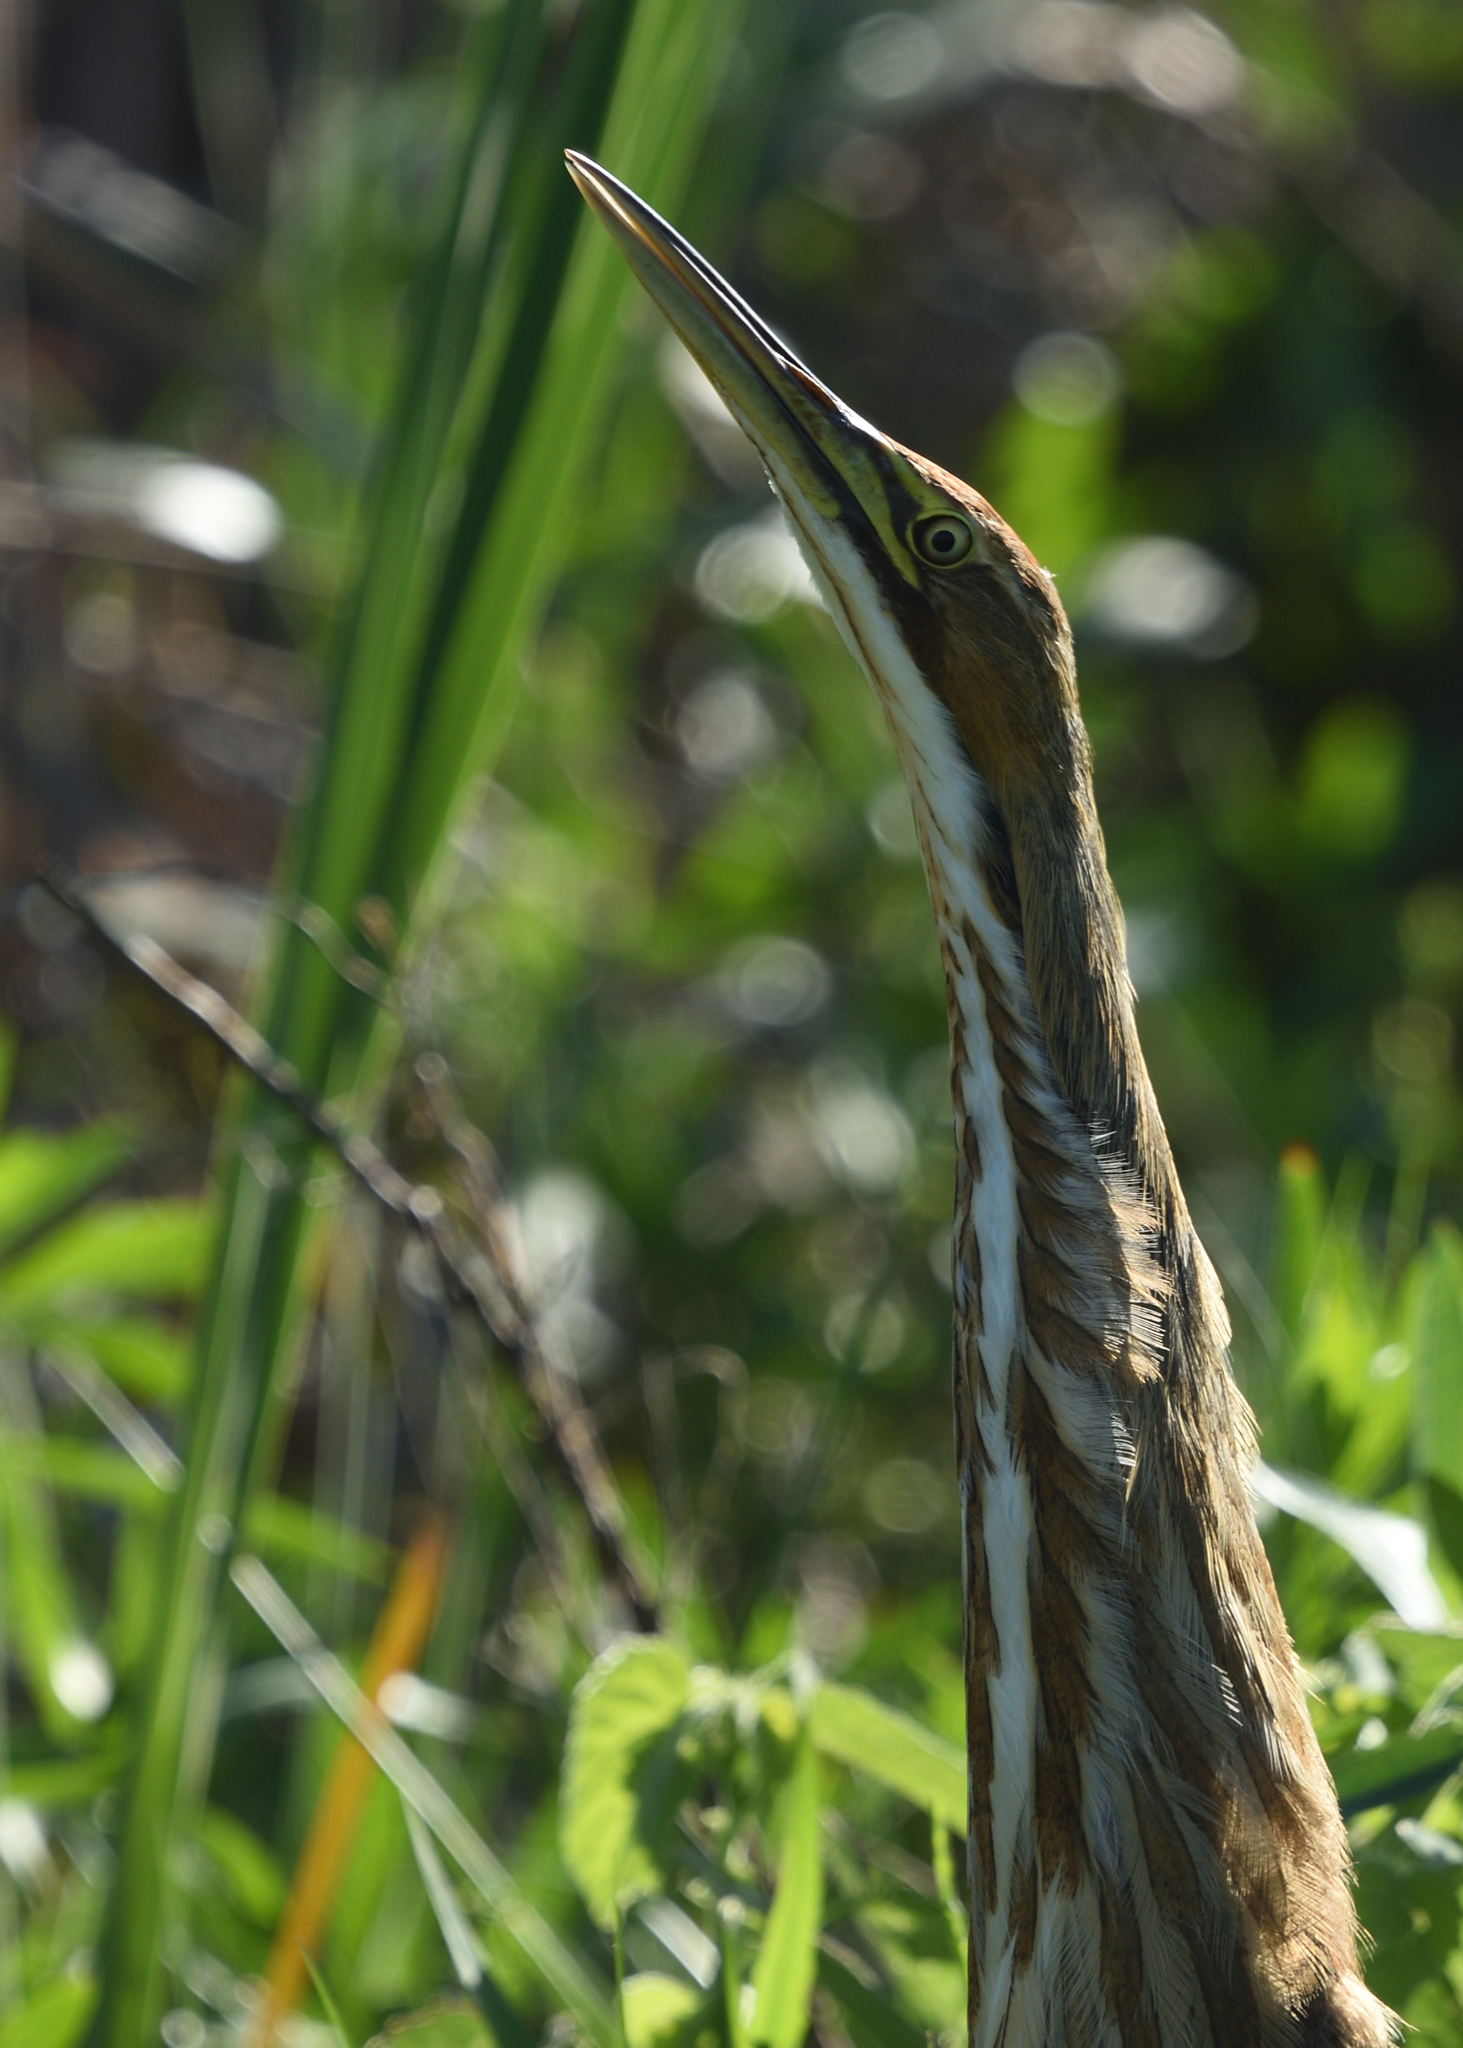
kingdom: Animalia
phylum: Chordata
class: Aves
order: Pelecaniformes
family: Ardeidae
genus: Botaurus
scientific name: Botaurus lentiginosus
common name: American bittern
